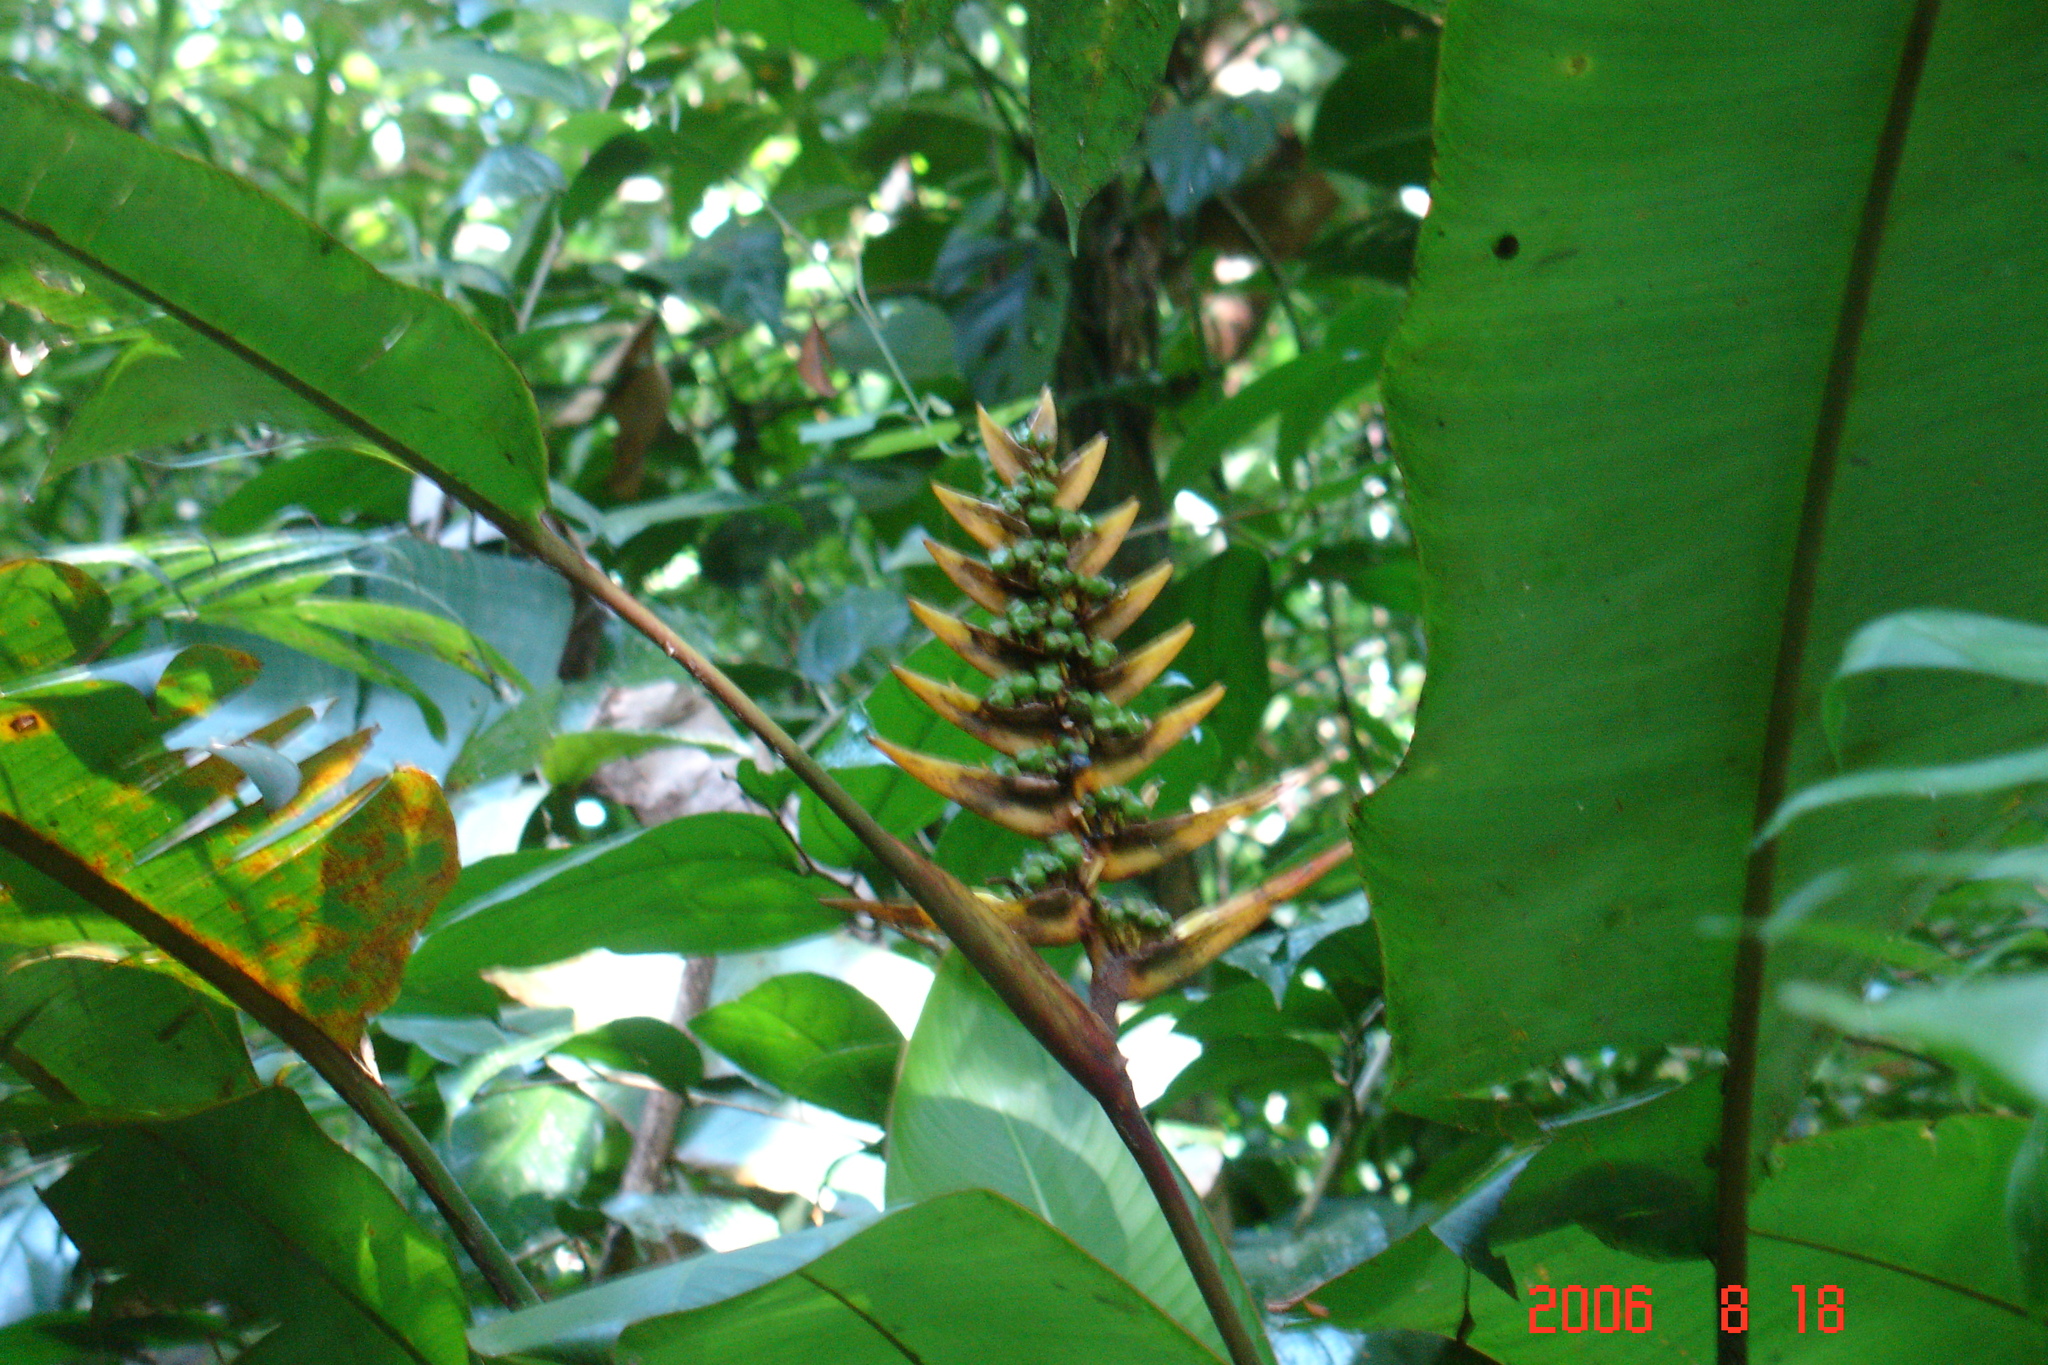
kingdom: Plantae
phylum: Tracheophyta
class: Liliopsida
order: Zingiberales
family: Heliconiaceae
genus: Heliconia
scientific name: Heliconia librata
